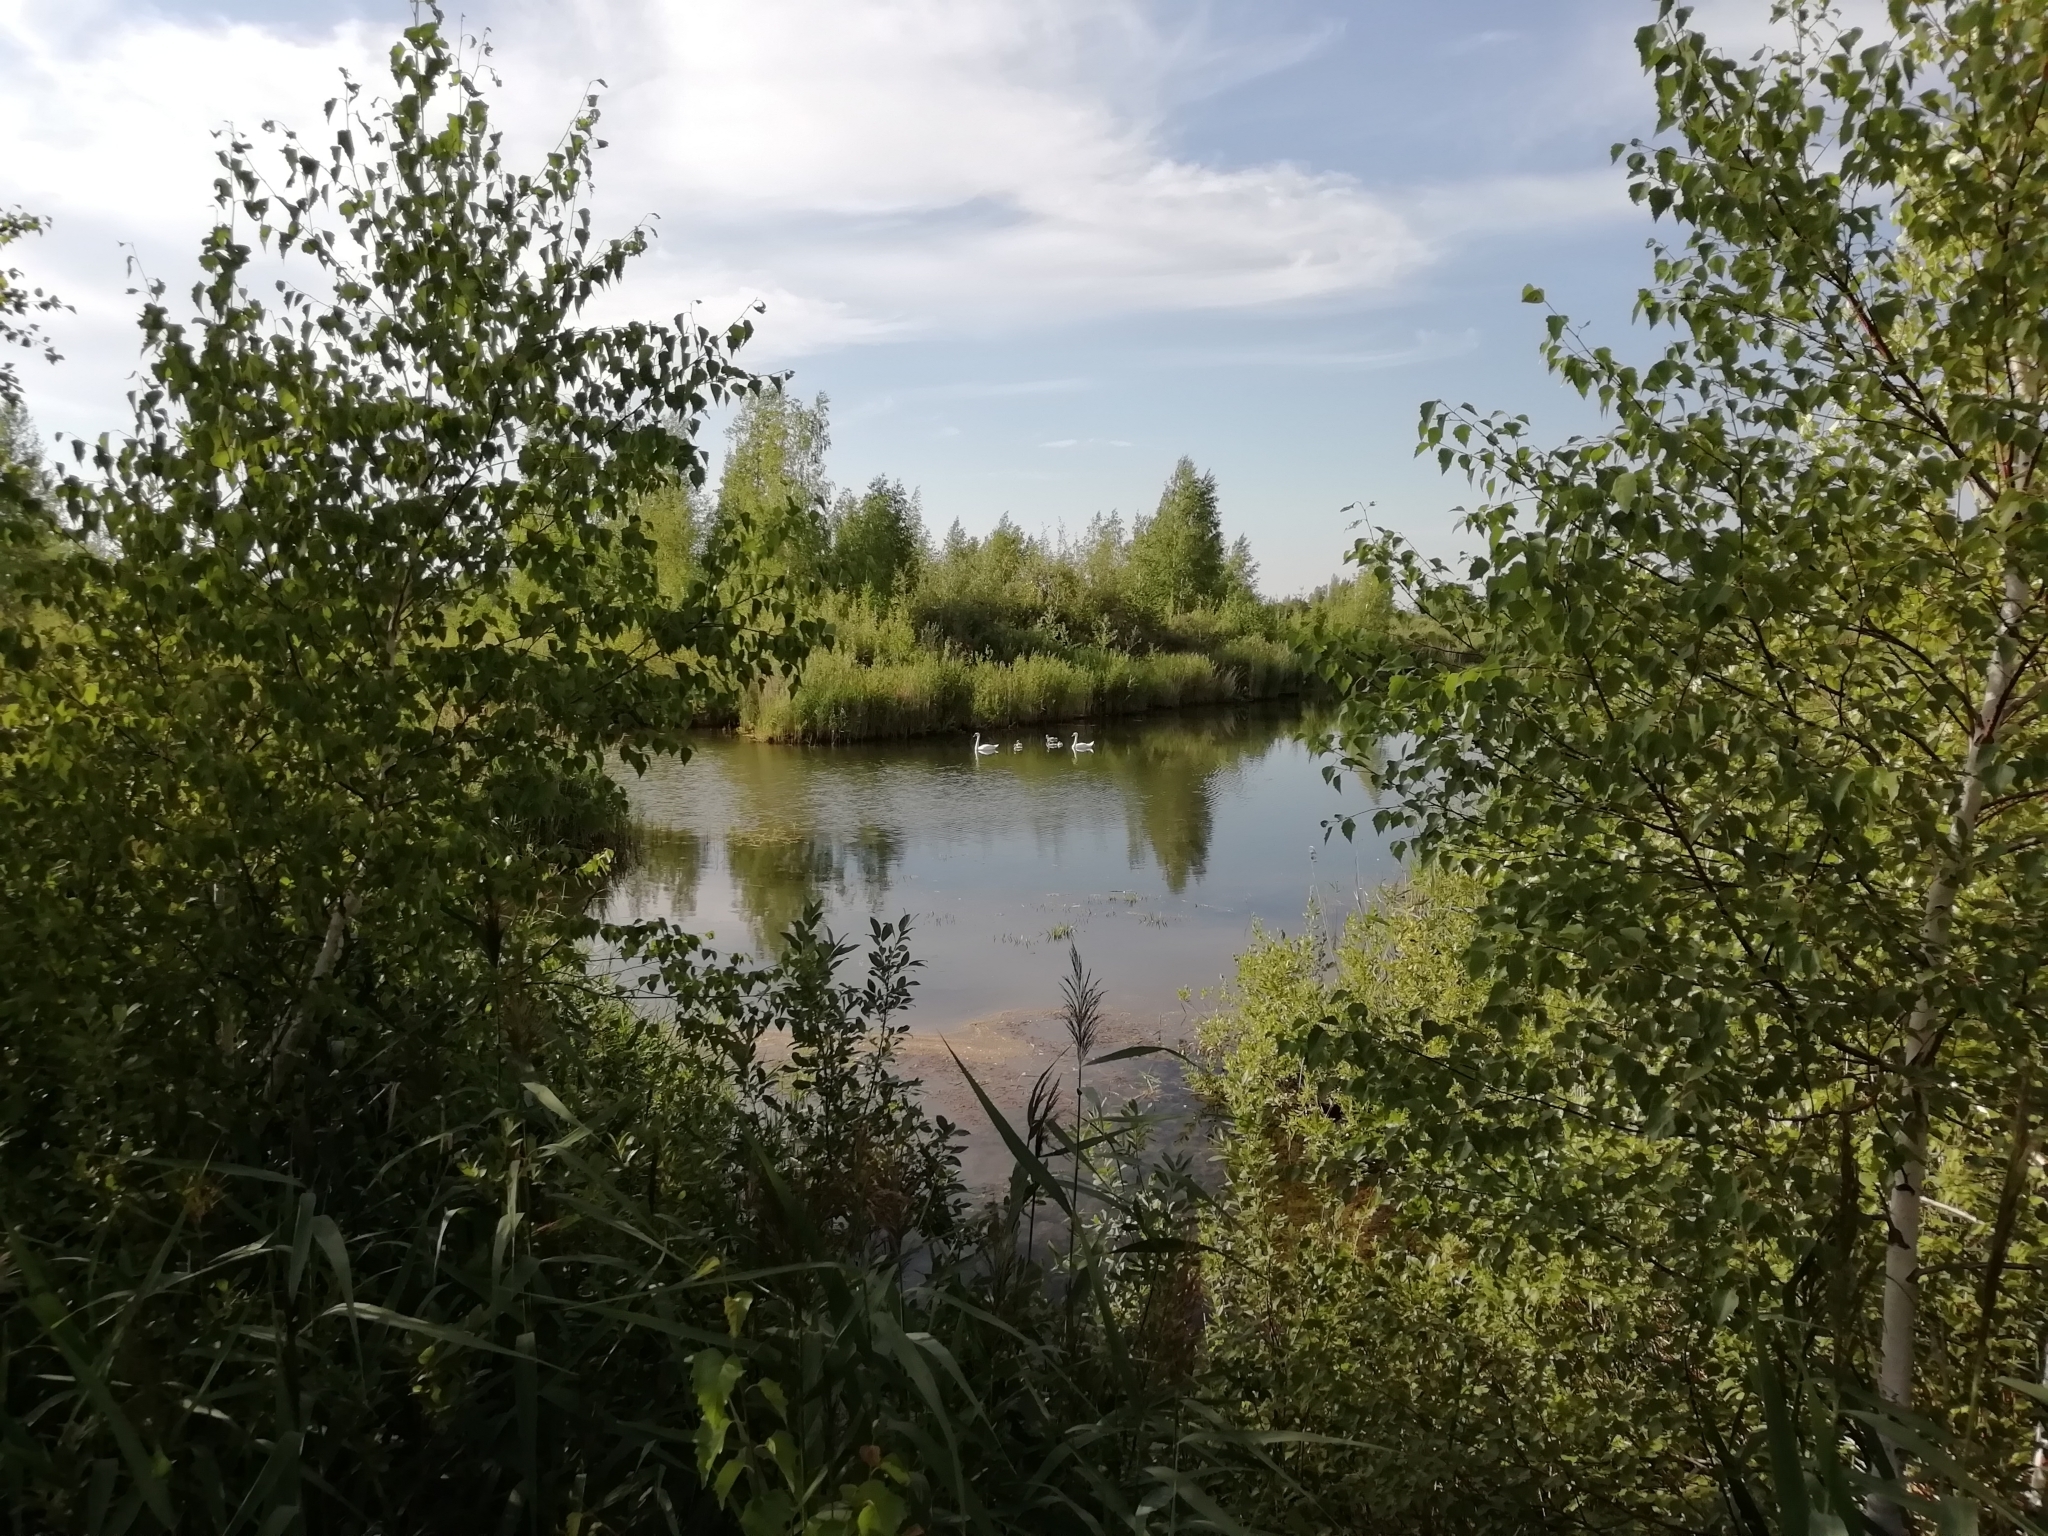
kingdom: Animalia
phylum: Chordata
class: Aves
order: Anseriformes
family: Anatidae
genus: Cygnus
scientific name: Cygnus olor
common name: Mute swan
